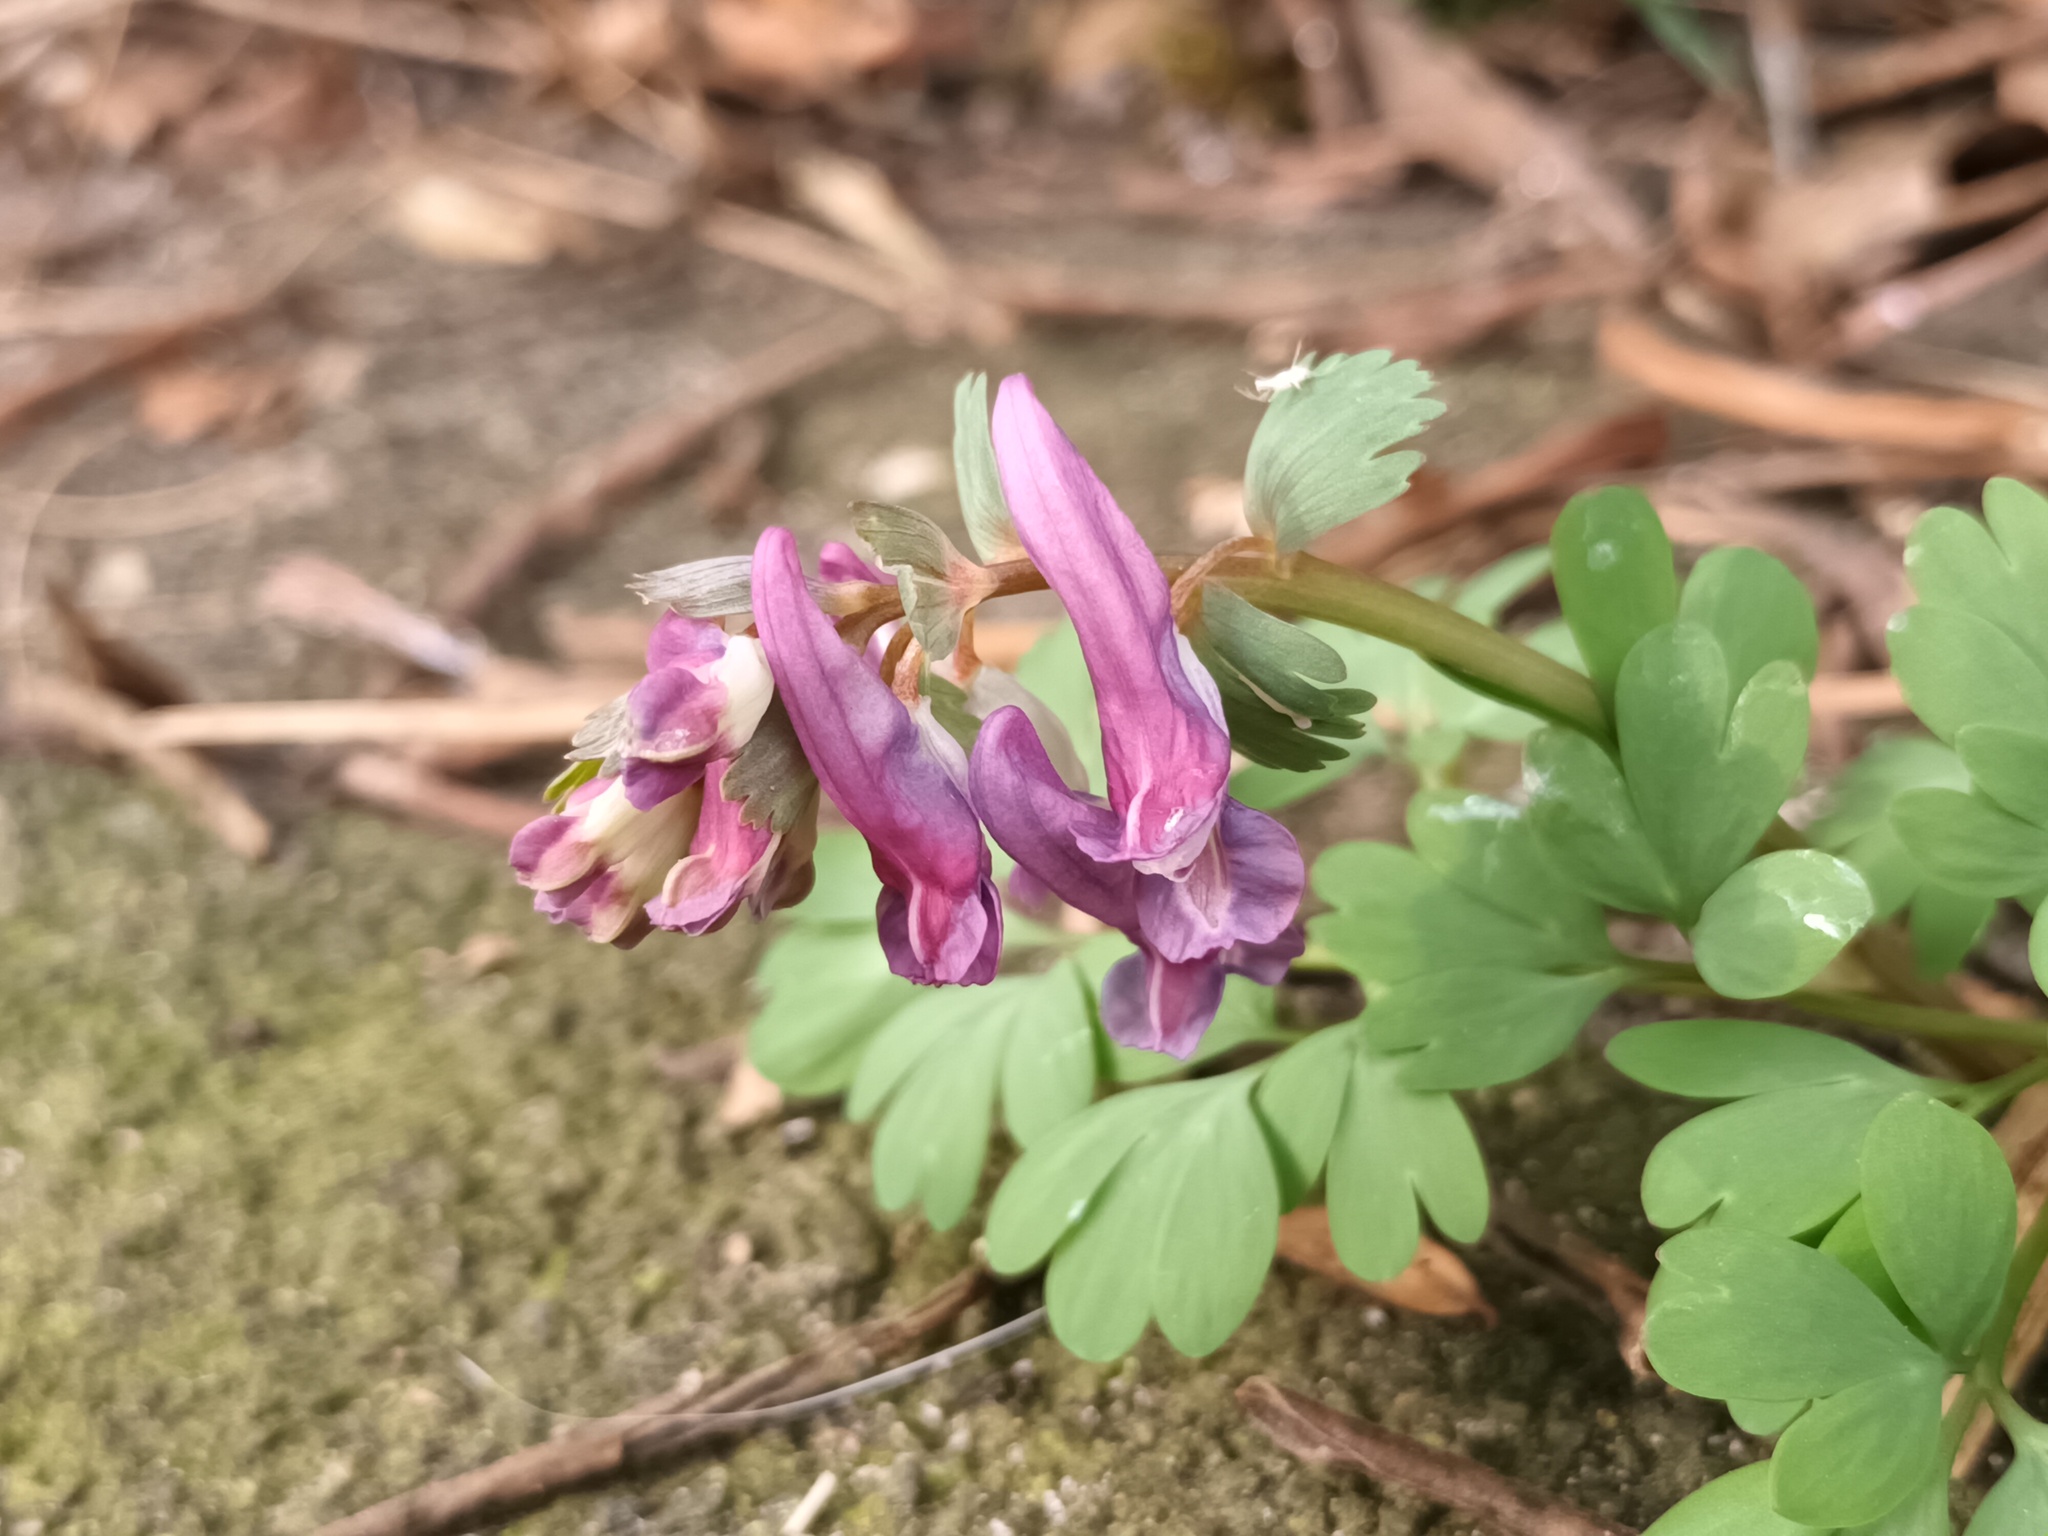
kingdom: Plantae
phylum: Tracheophyta
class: Magnoliopsida
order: Ranunculales
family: Papaveraceae
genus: Corydalis
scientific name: Corydalis solida
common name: Bird-in-a-bush
